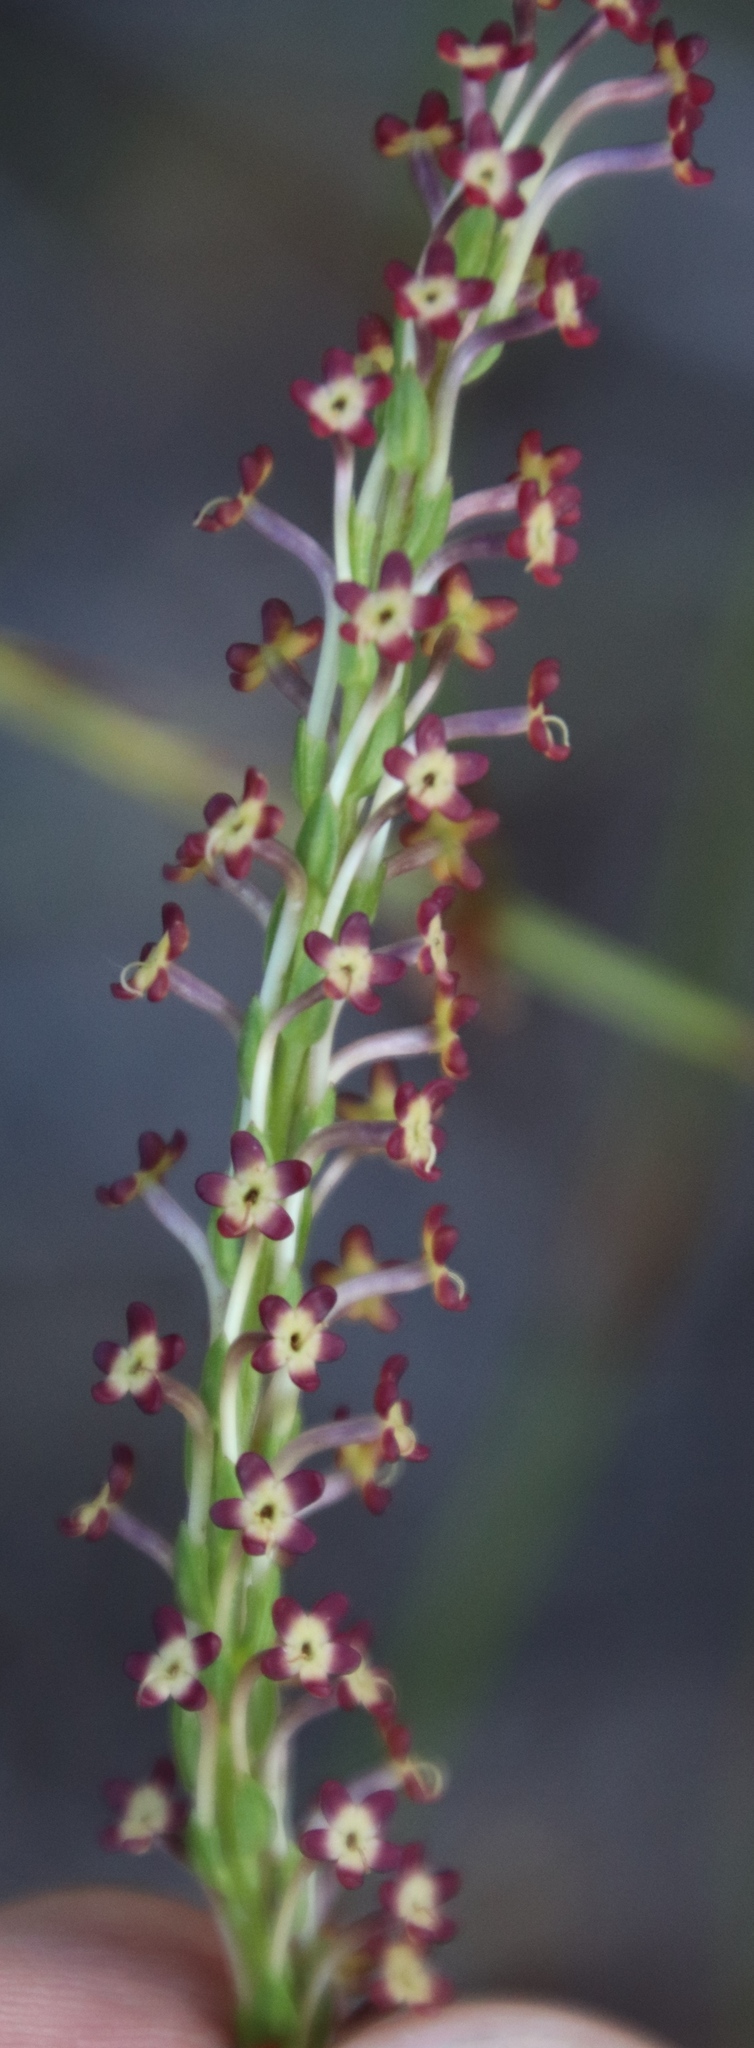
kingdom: Plantae
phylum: Tracheophyta
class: Magnoliopsida
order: Lamiales
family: Scrophulariaceae
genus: Microdon
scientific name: Microdon dubius
